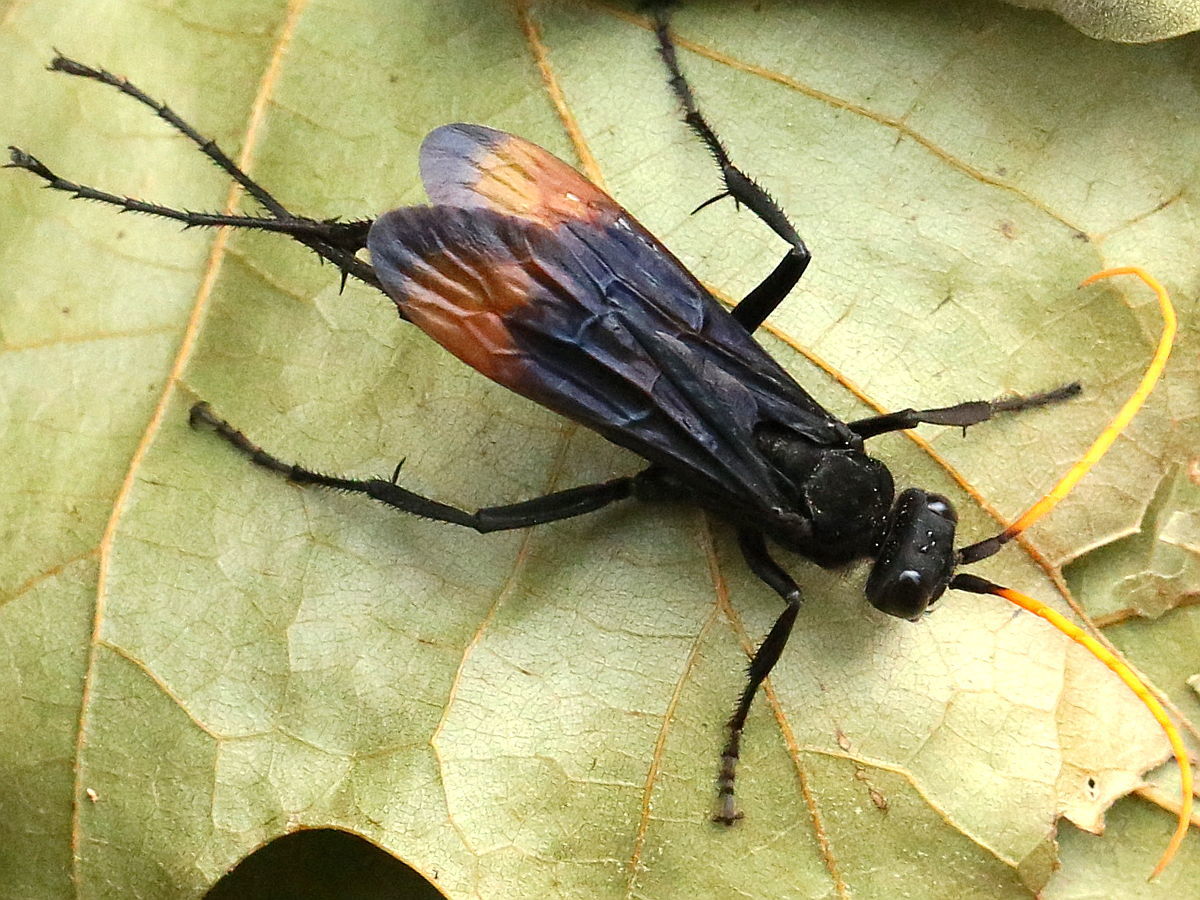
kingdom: Animalia
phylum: Arthropoda
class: Insecta
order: Hymenoptera
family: Pompilidae
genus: Entypus
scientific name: Entypus unifasciatus
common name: Eastern tawny-horned spider wasp
